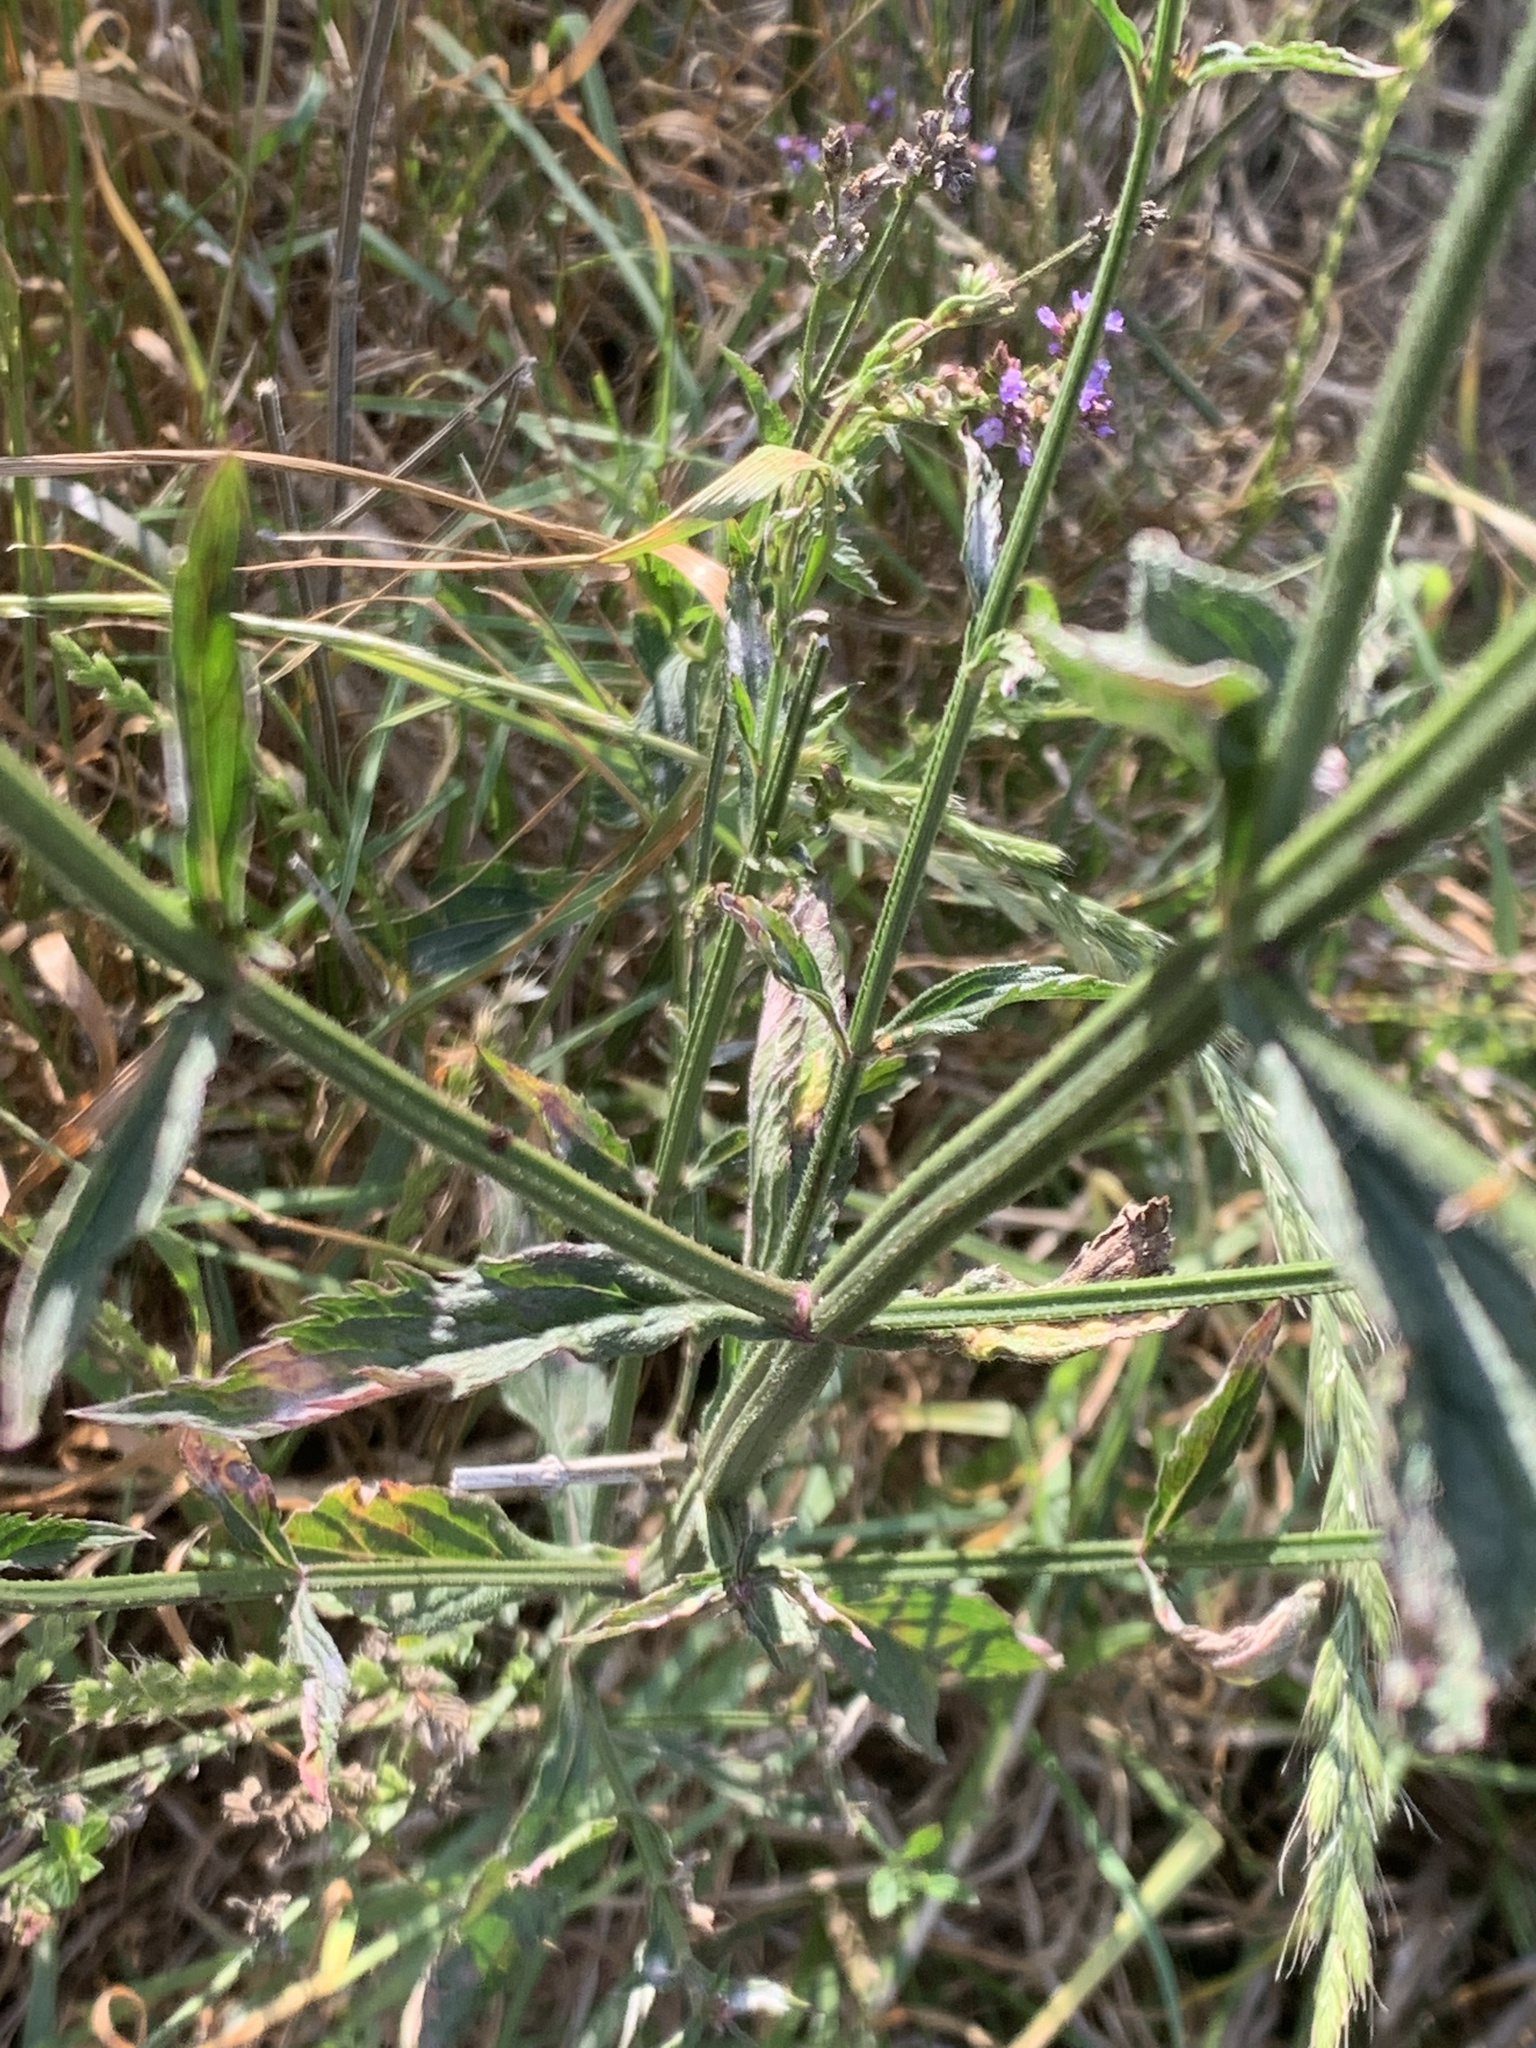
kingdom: Plantae
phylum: Tracheophyta
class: Magnoliopsida
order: Lamiales
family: Verbenaceae
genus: Verbena
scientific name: Verbena bonariensis
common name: Purpletop vervain
